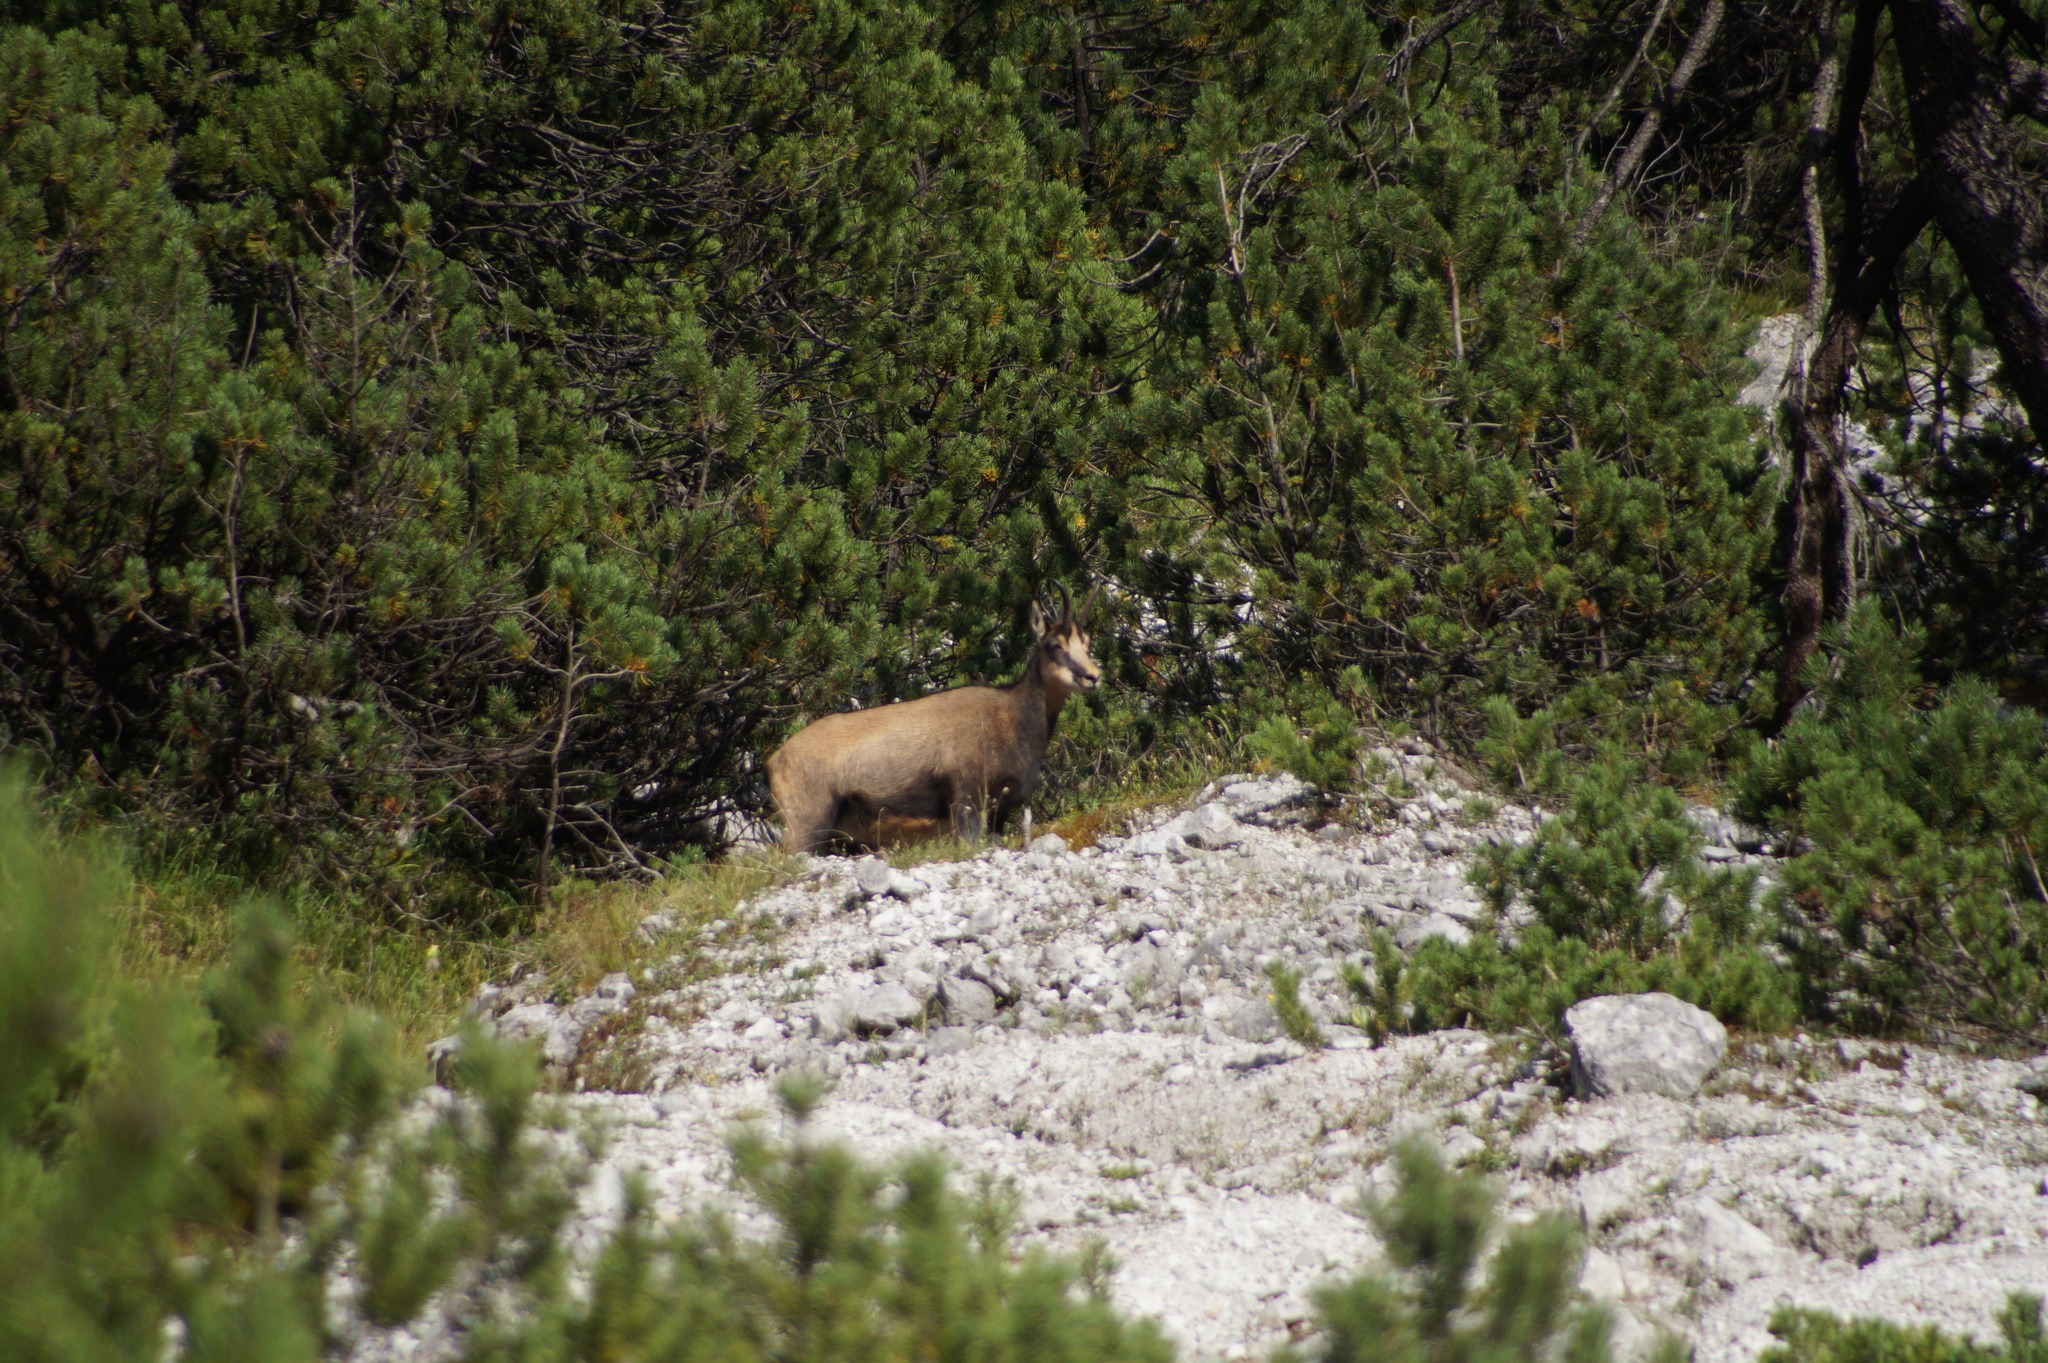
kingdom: Animalia
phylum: Chordata
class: Mammalia
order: Artiodactyla
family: Bovidae
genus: Rupicapra
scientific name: Rupicapra rupicapra
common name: Chamois
